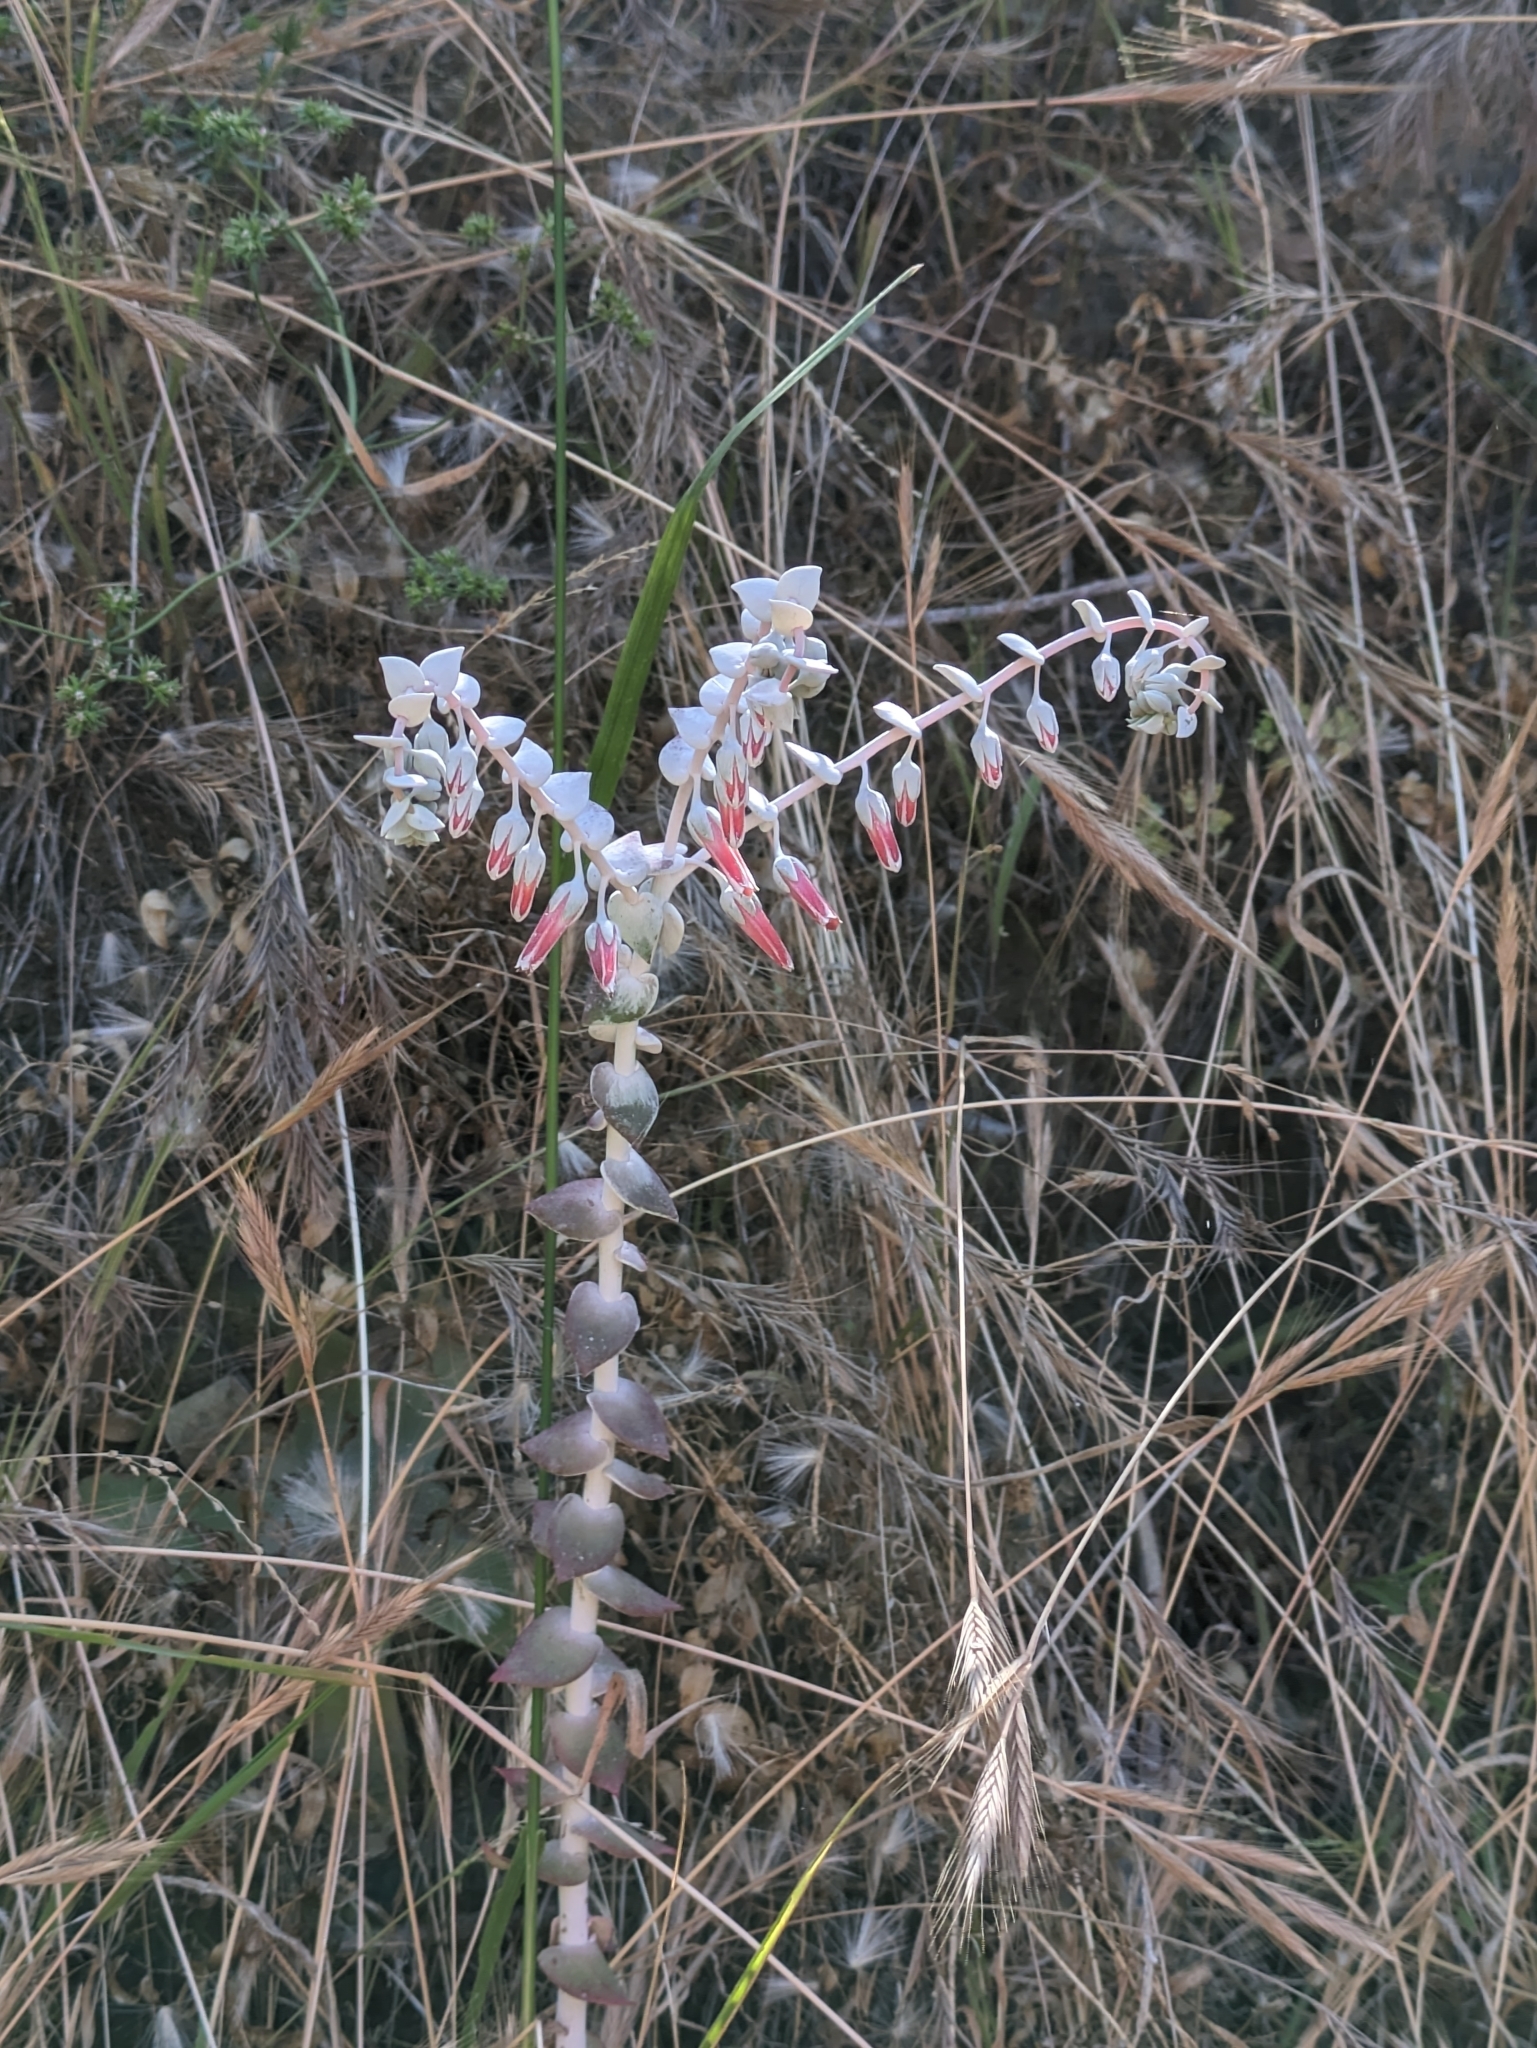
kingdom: Plantae
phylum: Tracheophyta
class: Magnoliopsida
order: Saxifragales
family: Crassulaceae
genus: Dudleya
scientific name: Dudleya pulverulenta
